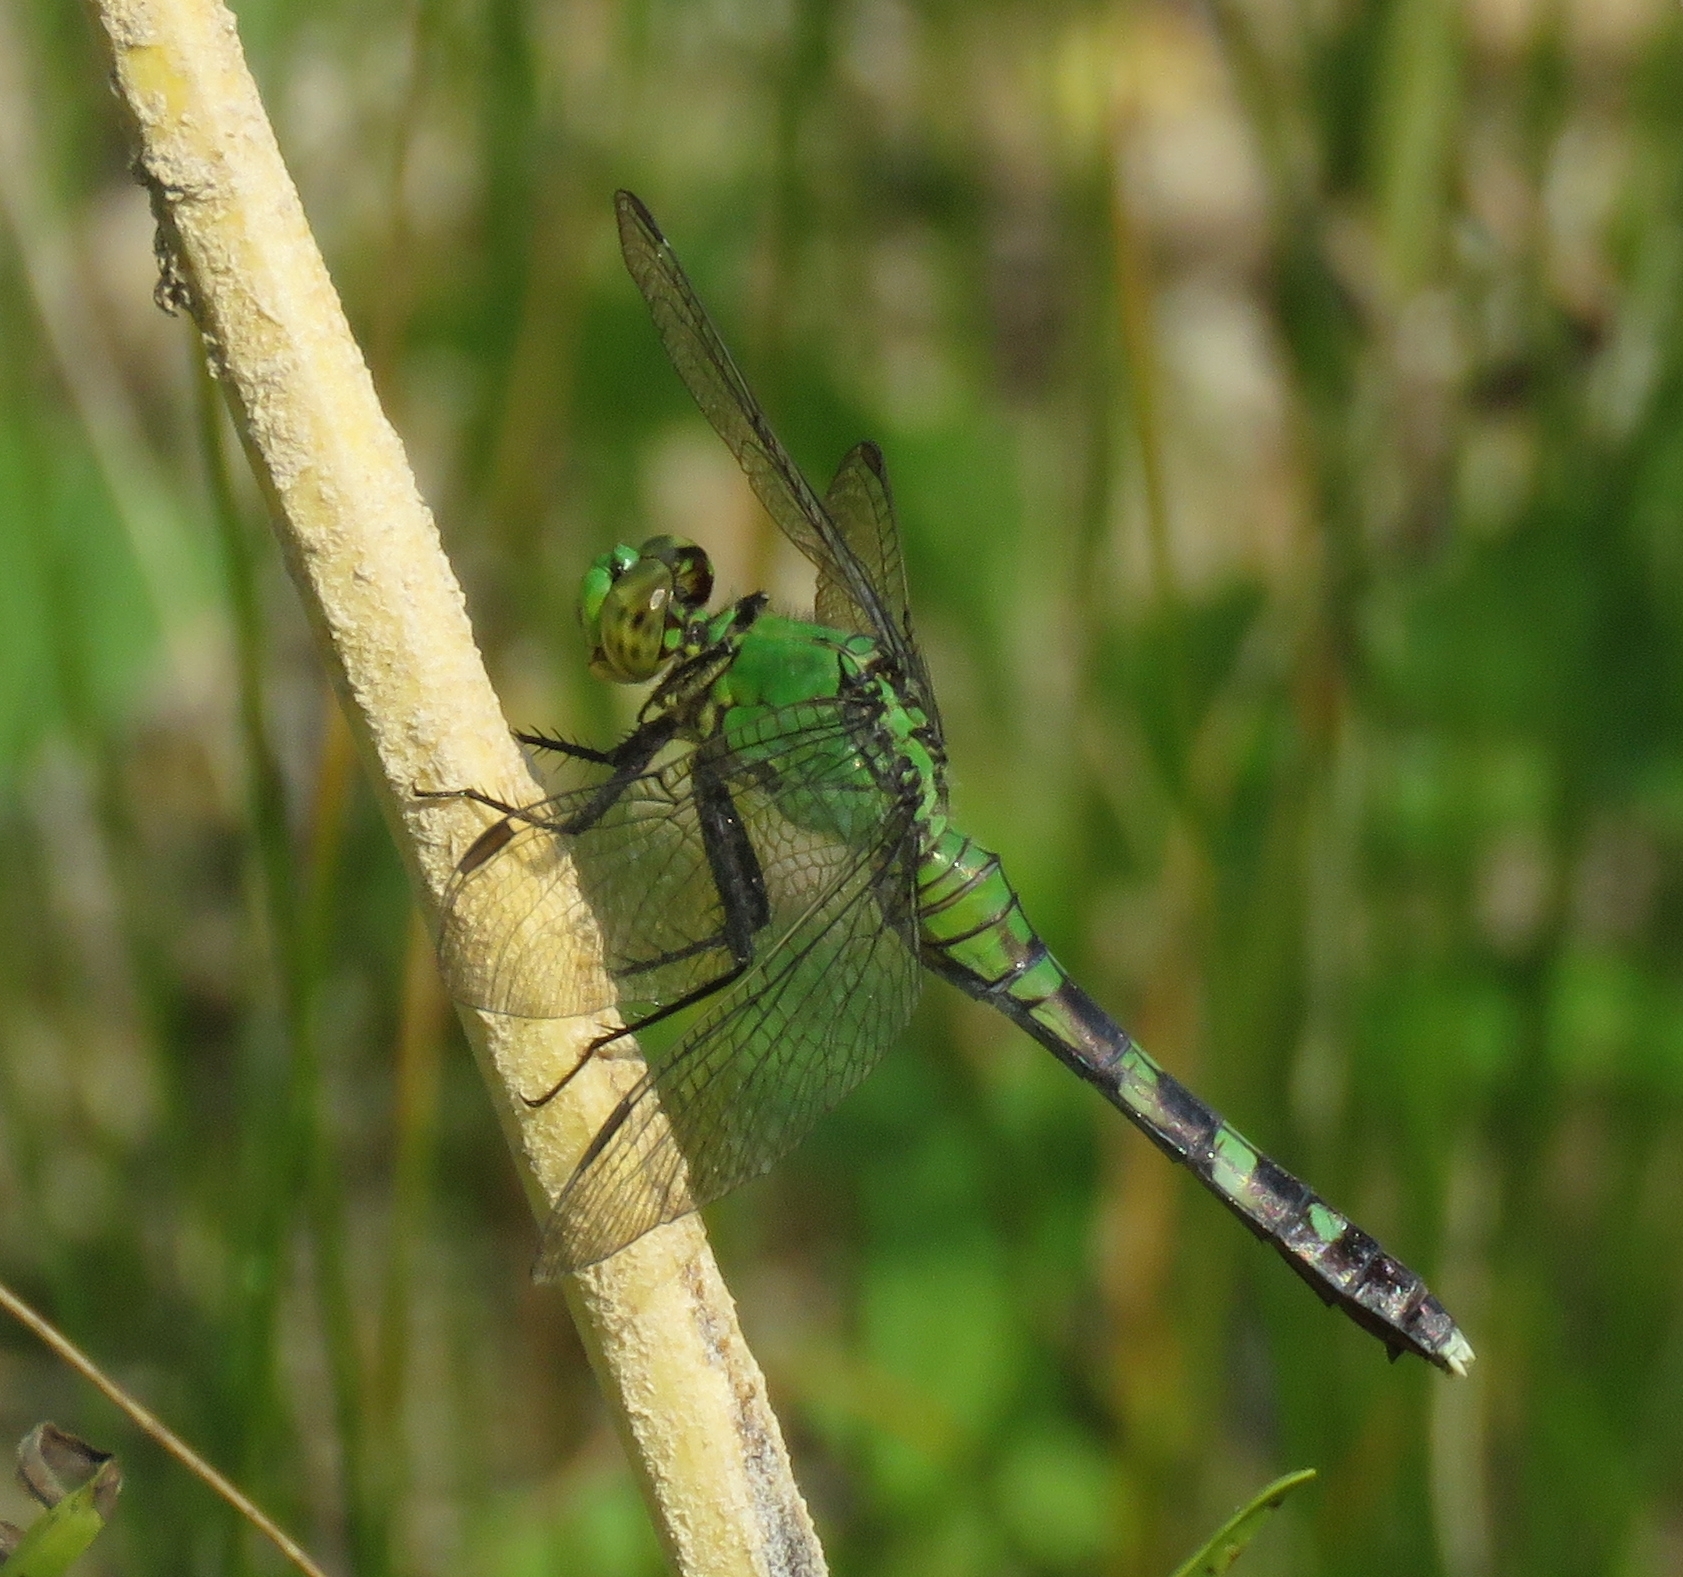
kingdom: Animalia
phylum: Arthropoda
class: Insecta
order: Odonata
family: Libellulidae
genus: Erythemis
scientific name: Erythemis simplicicollis
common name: Eastern pondhawk
